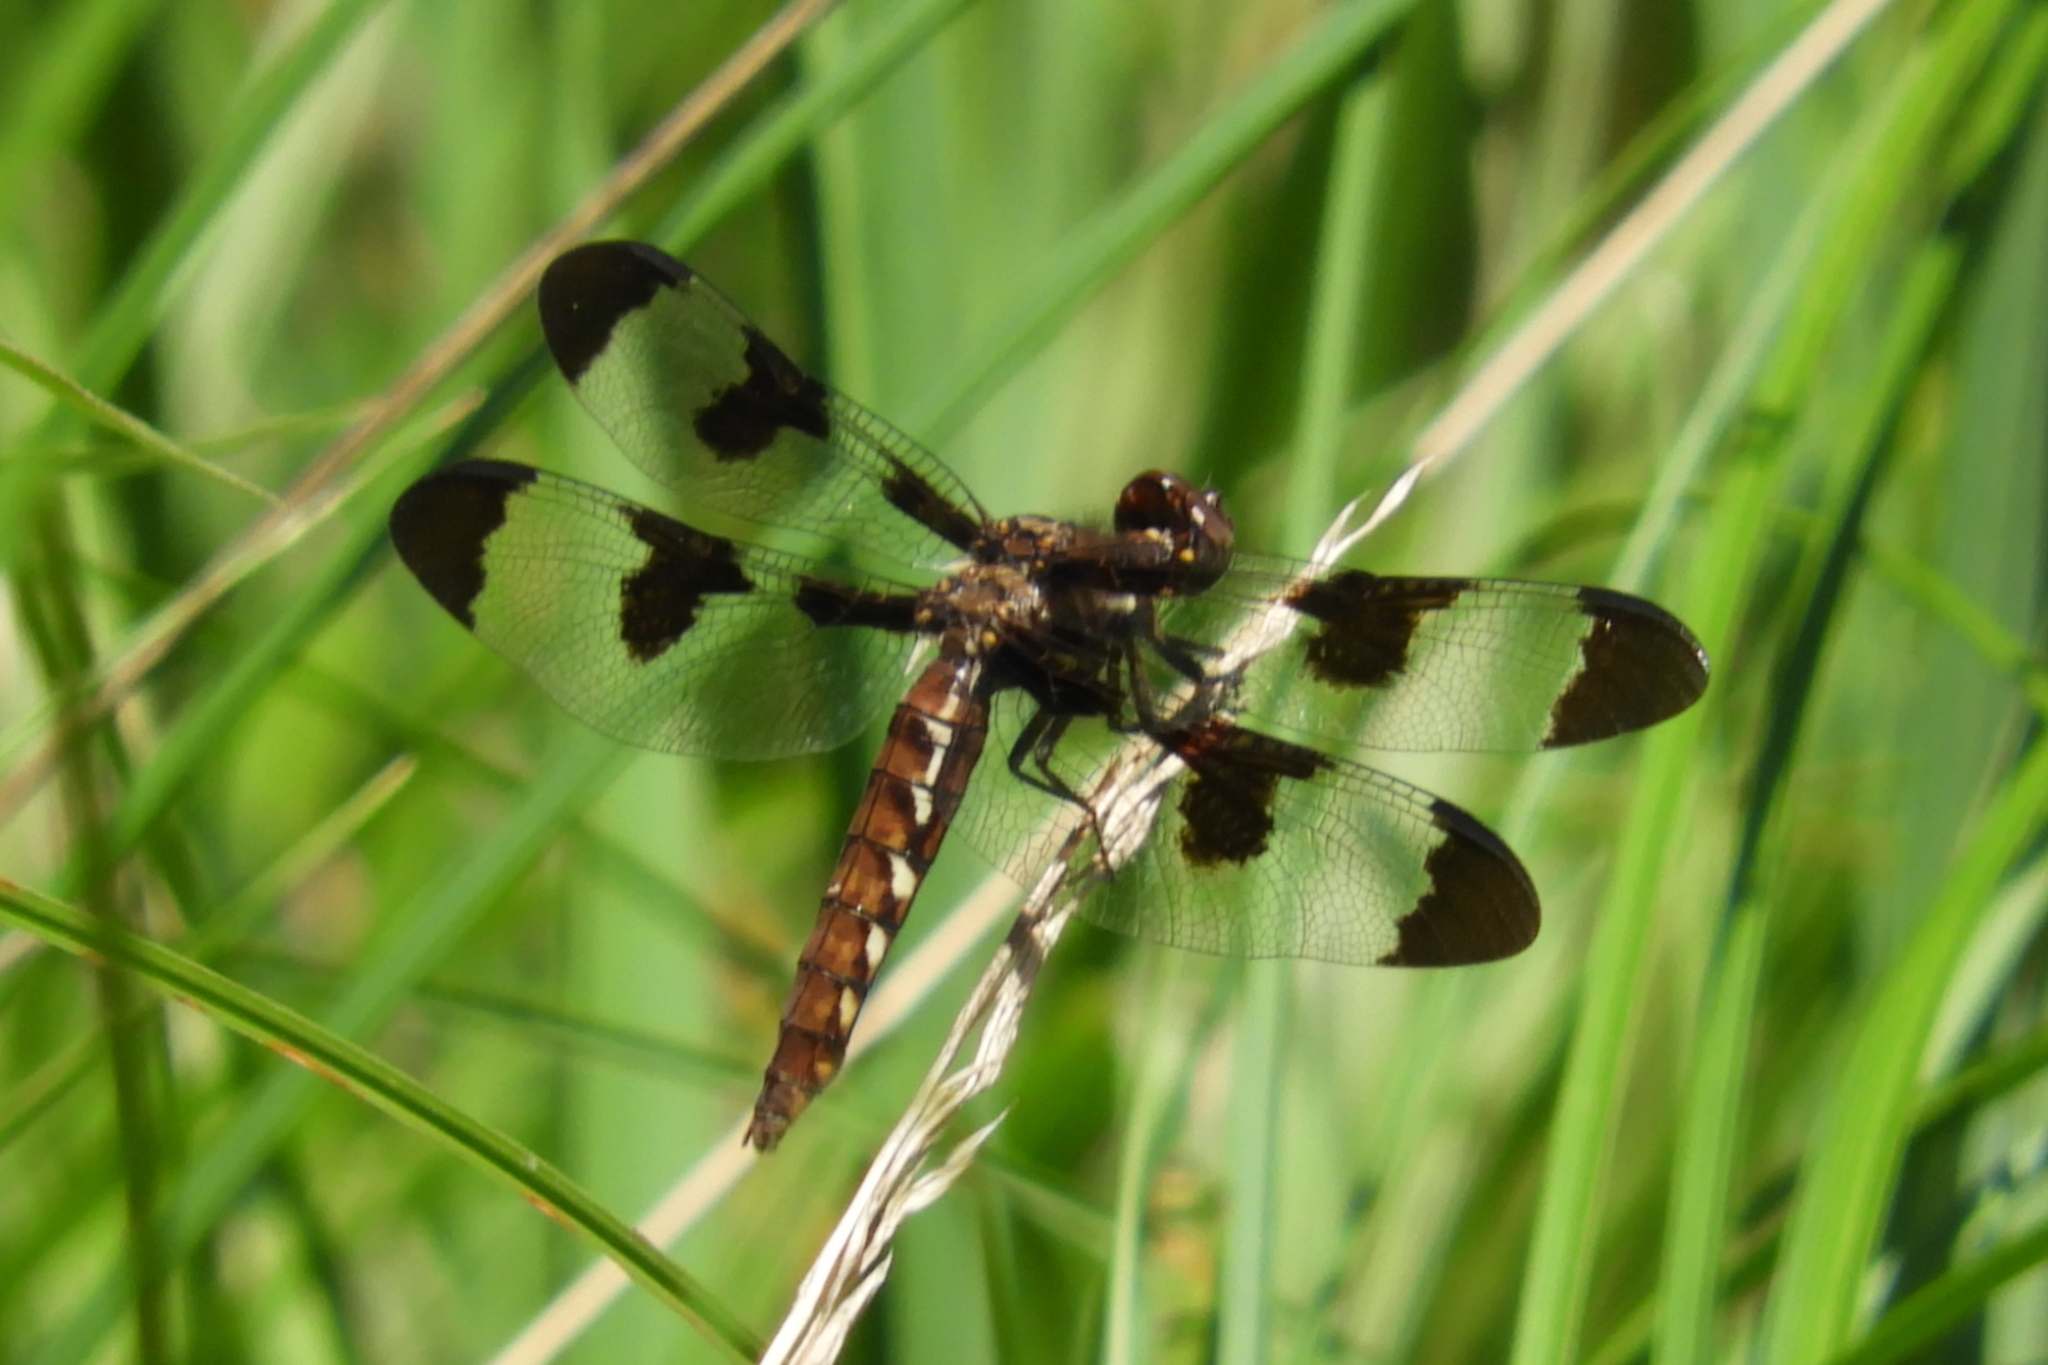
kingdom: Animalia
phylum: Arthropoda
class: Insecta
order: Odonata
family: Libellulidae
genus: Plathemis
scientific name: Plathemis lydia
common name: Common whitetail
